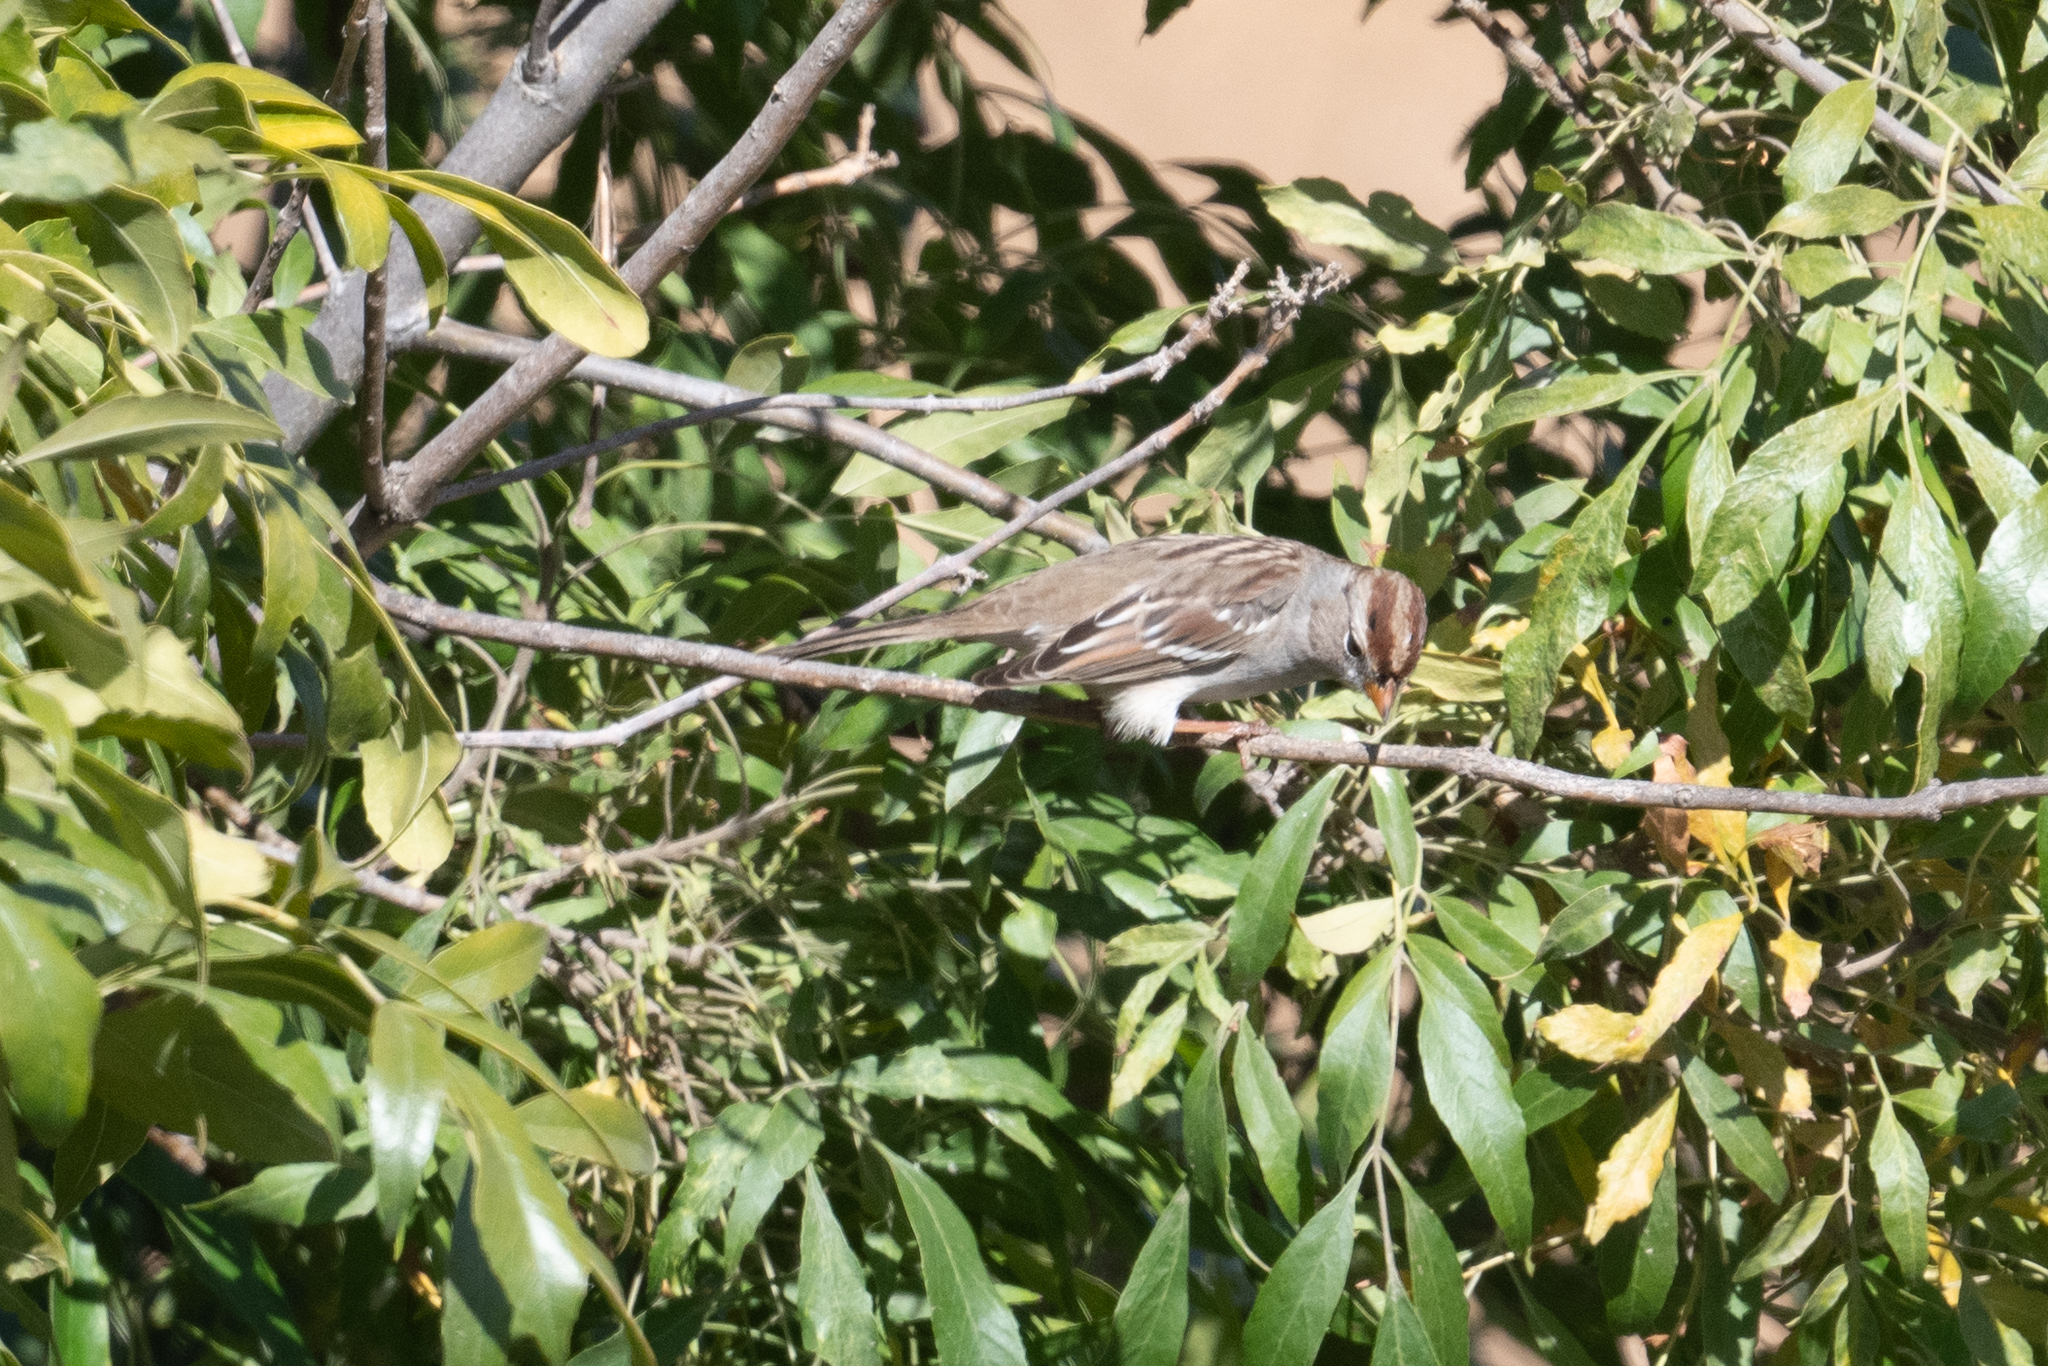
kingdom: Animalia
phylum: Chordata
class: Aves
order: Passeriformes
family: Passerellidae
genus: Zonotrichia
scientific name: Zonotrichia leucophrys
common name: White-crowned sparrow
